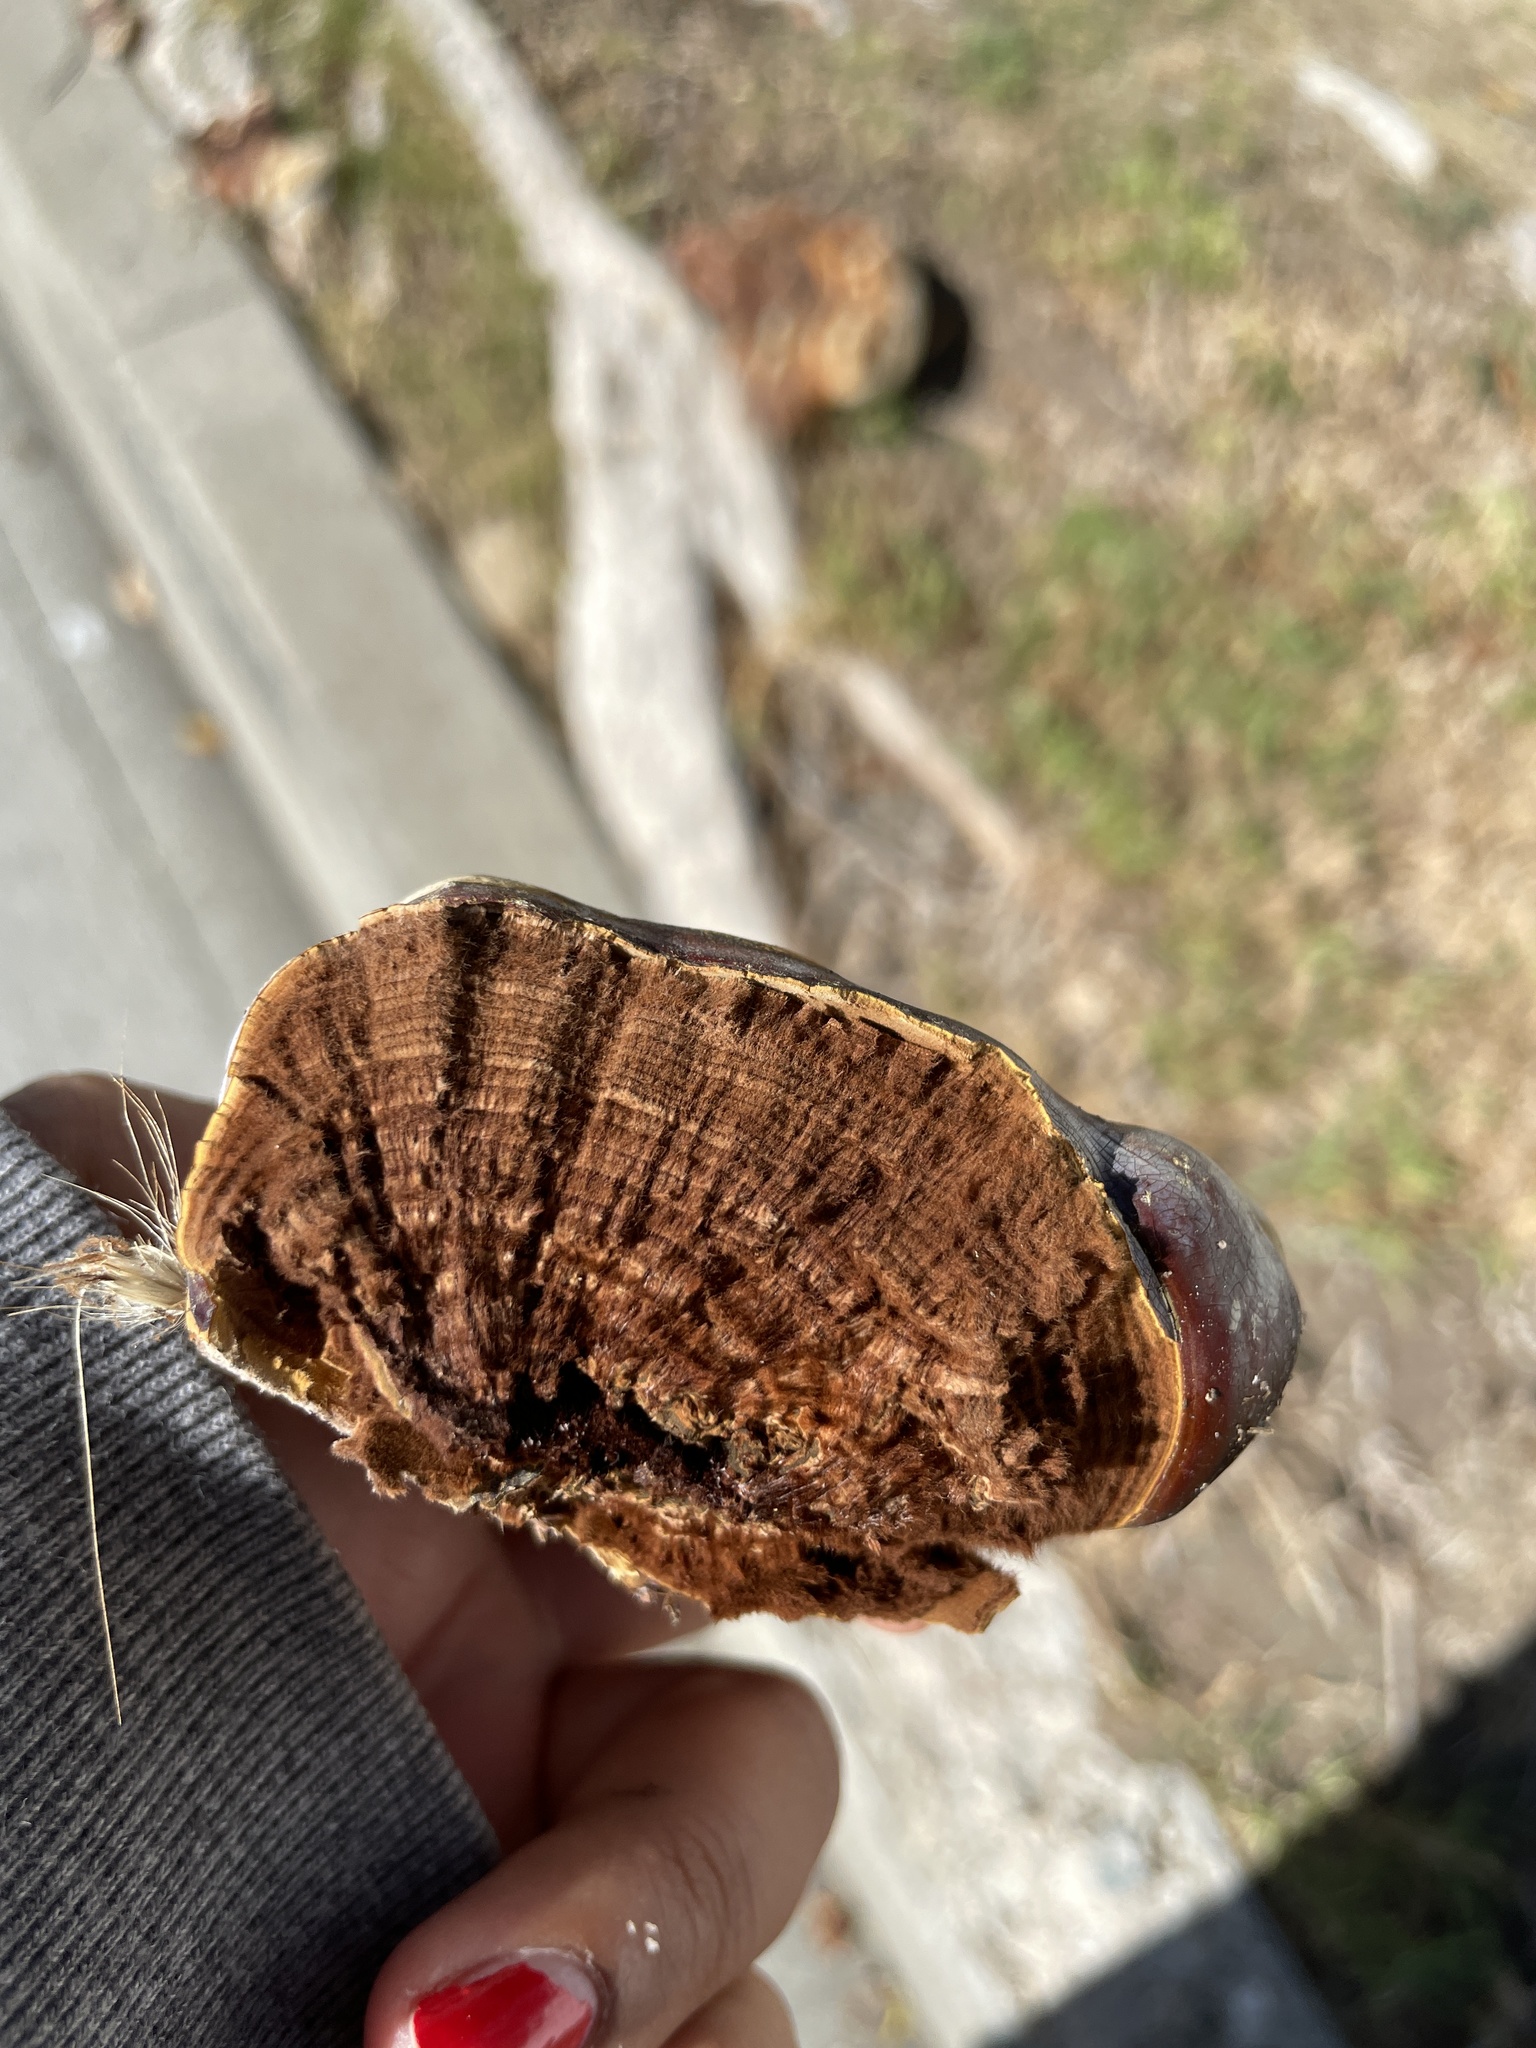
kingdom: Fungi
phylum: Basidiomycota
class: Agaricomycetes
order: Polyporales
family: Polyporaceae
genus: Ganoderma
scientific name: Ganoderma polychromum
